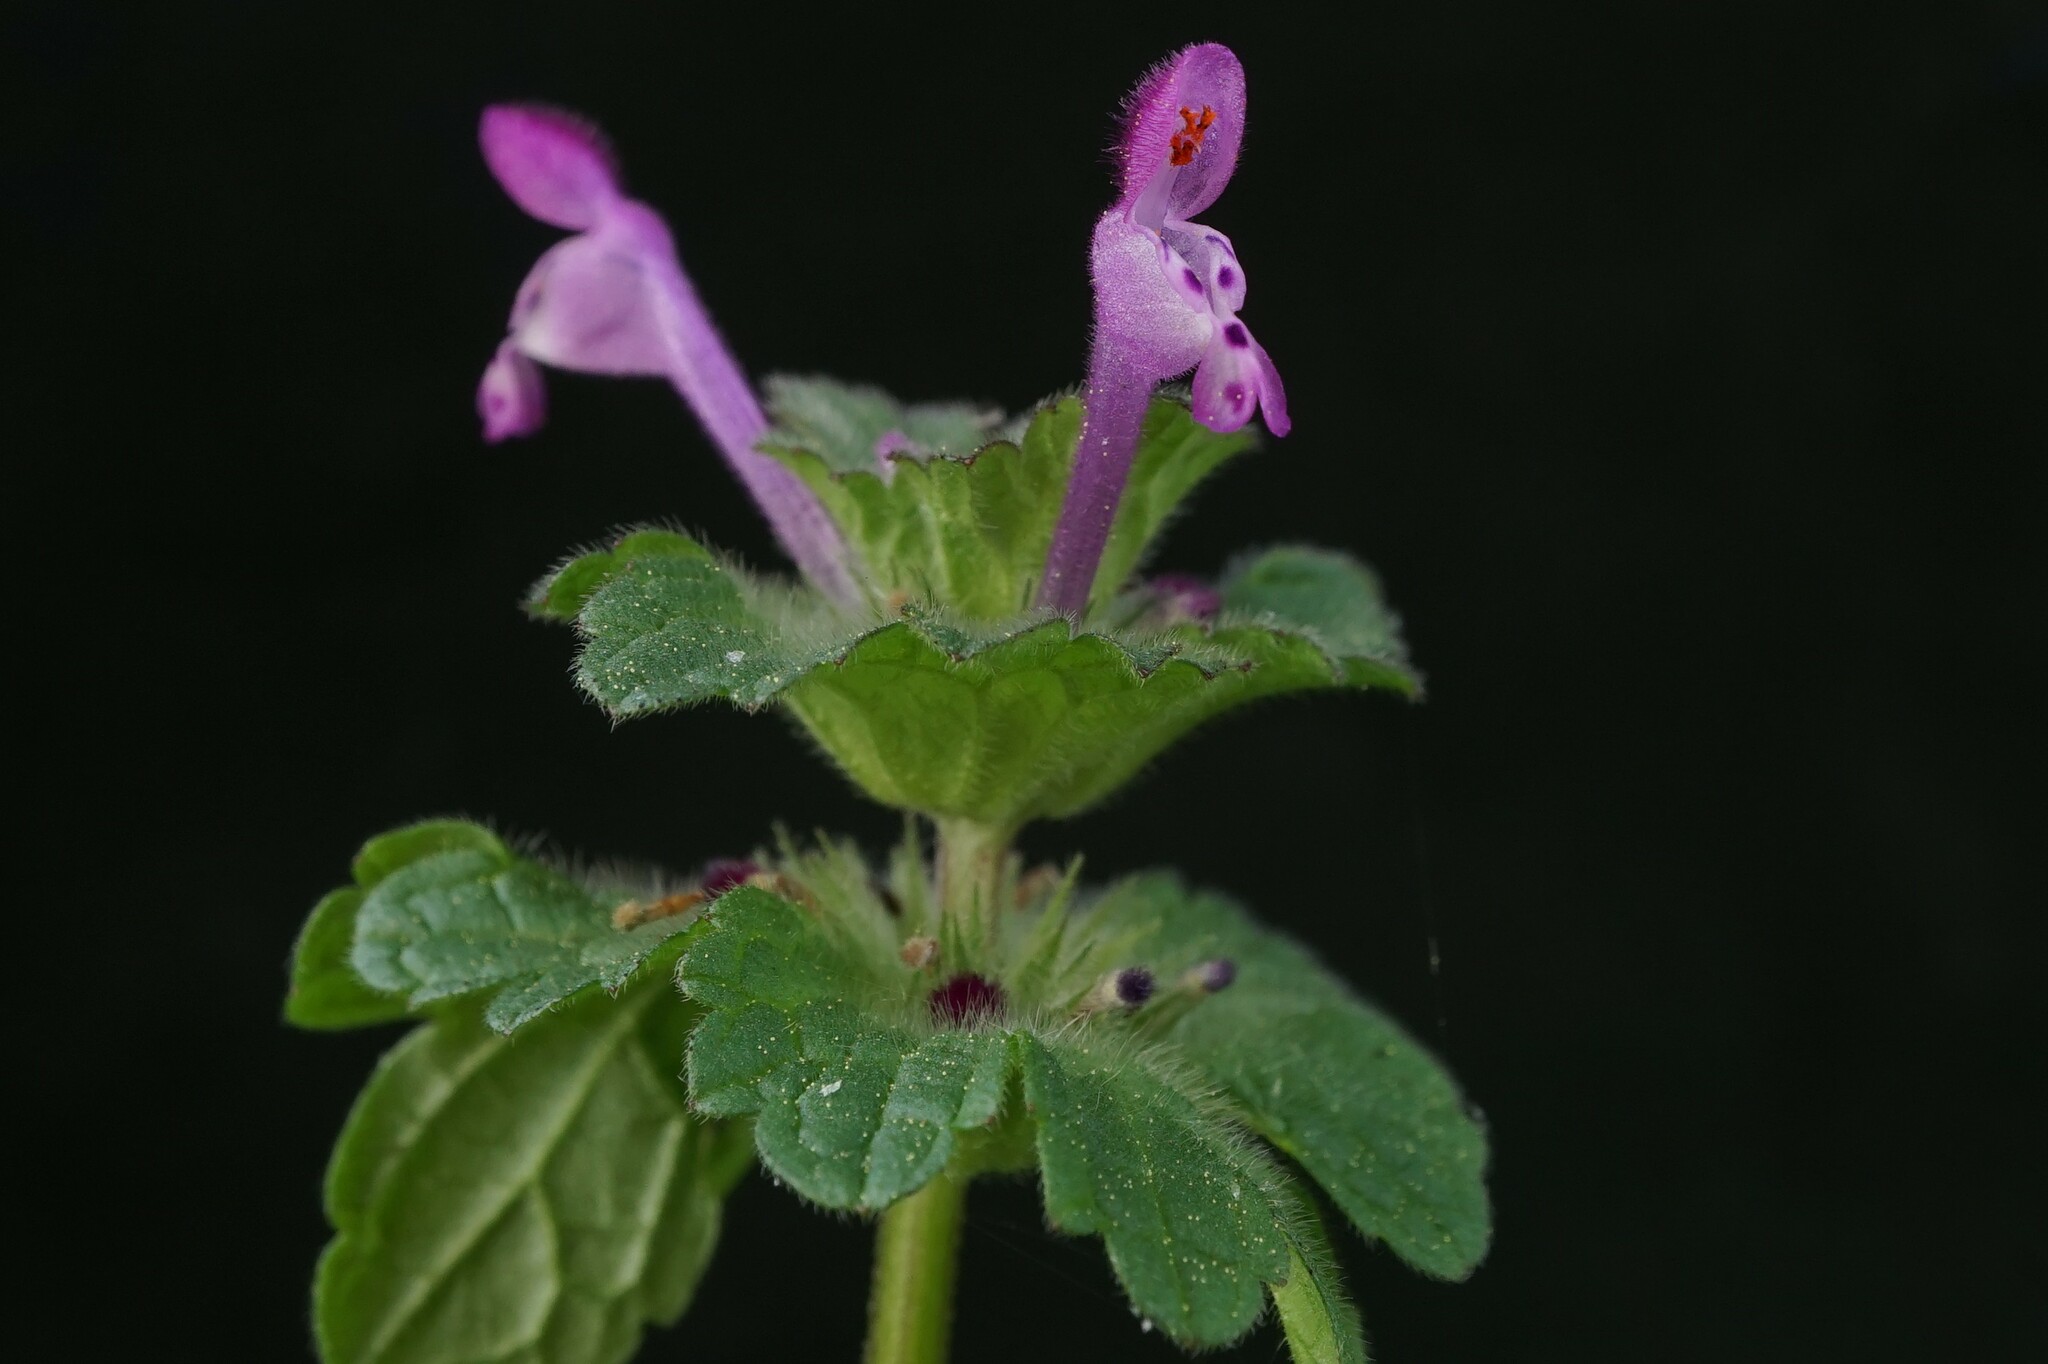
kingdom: Plantae
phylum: Tracheophyta
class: Magnoliopsida
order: Lamiales
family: Lamiaceae
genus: Lamium
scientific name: Lamium amplexicaule
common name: Henbit dead-nettle
